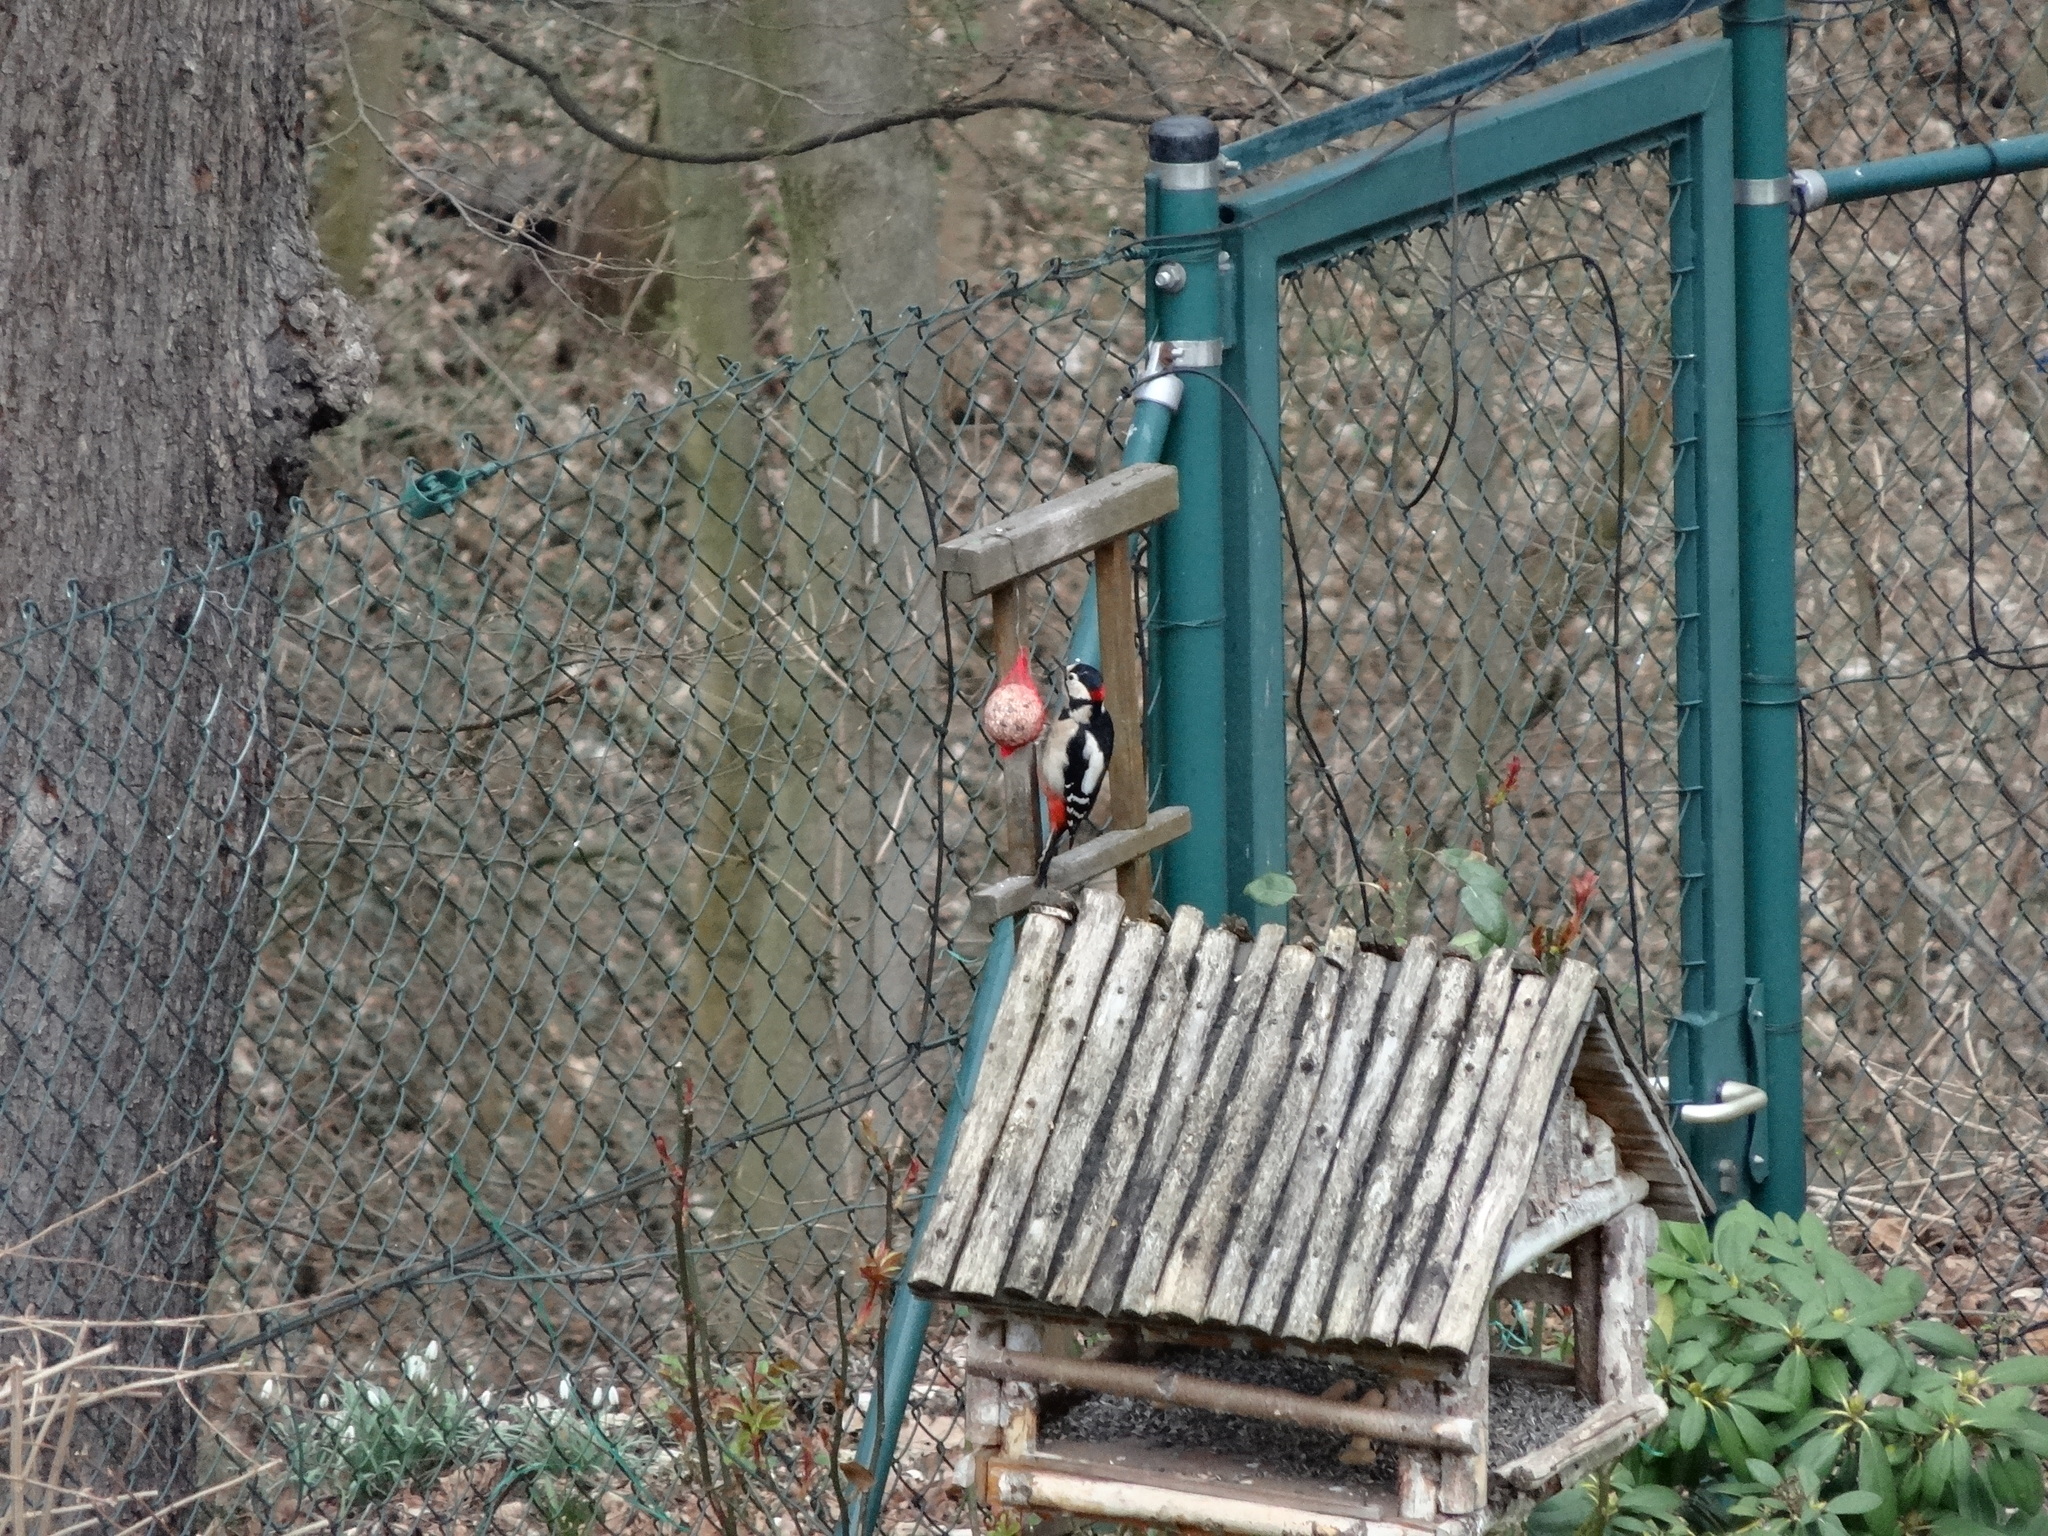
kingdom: Animalia
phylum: Chordata
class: Aves
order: Piciformes
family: Picidae
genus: Dendrocopos
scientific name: Dendrocopos major
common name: Great spotted woodpecker
